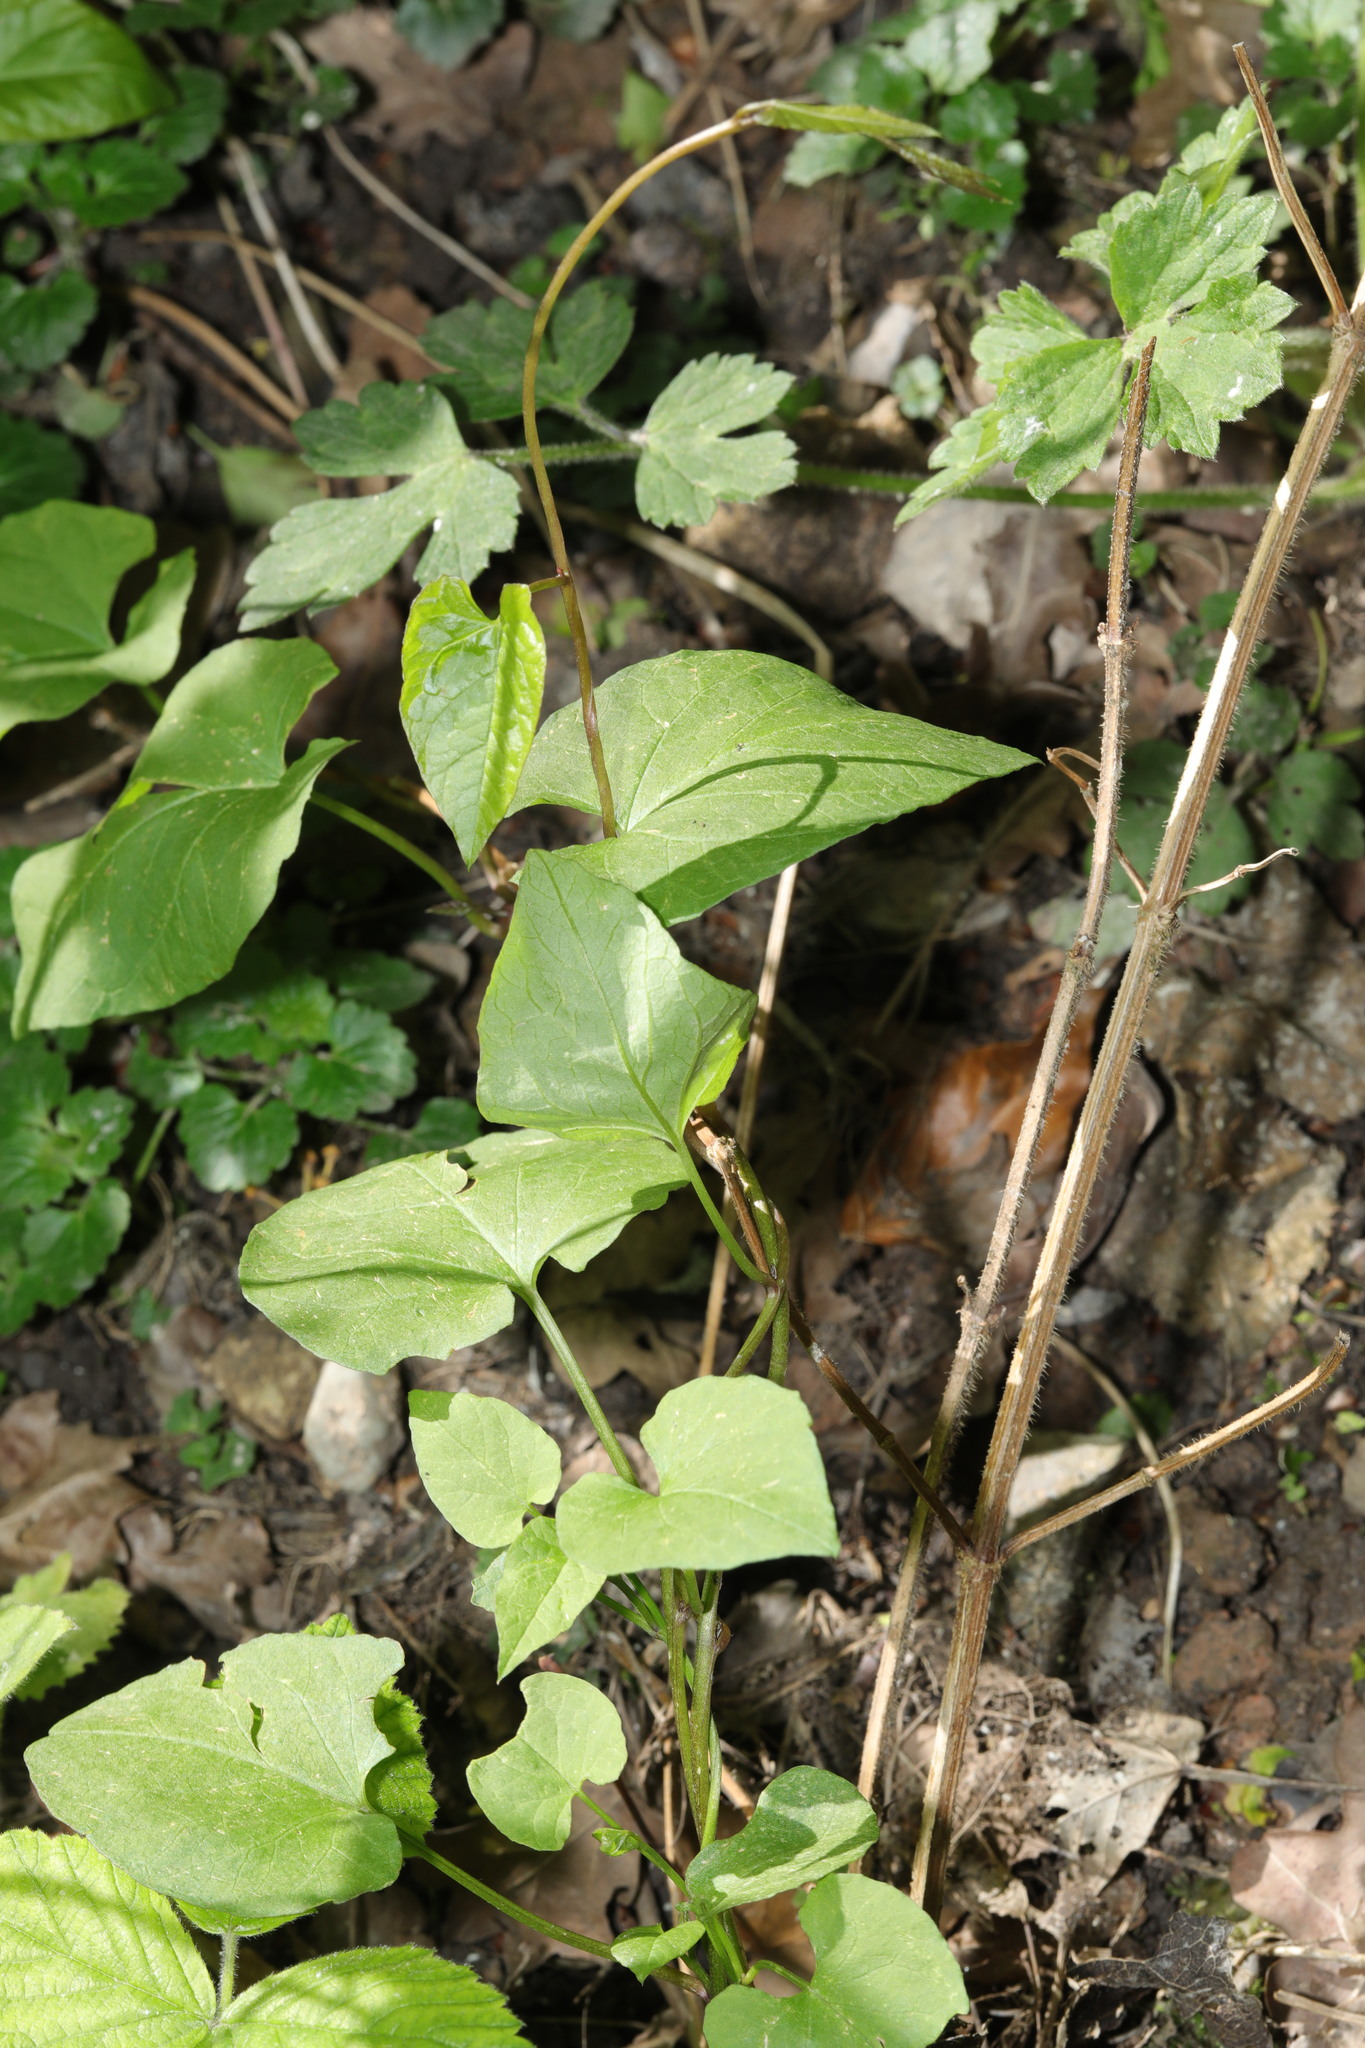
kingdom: Plantae
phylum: Tracheophyta
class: Magnoliopsida
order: Caryophyllales
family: Polygonaceae
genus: Fallopia
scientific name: Fallopia convolvulus
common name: Black bindweed
